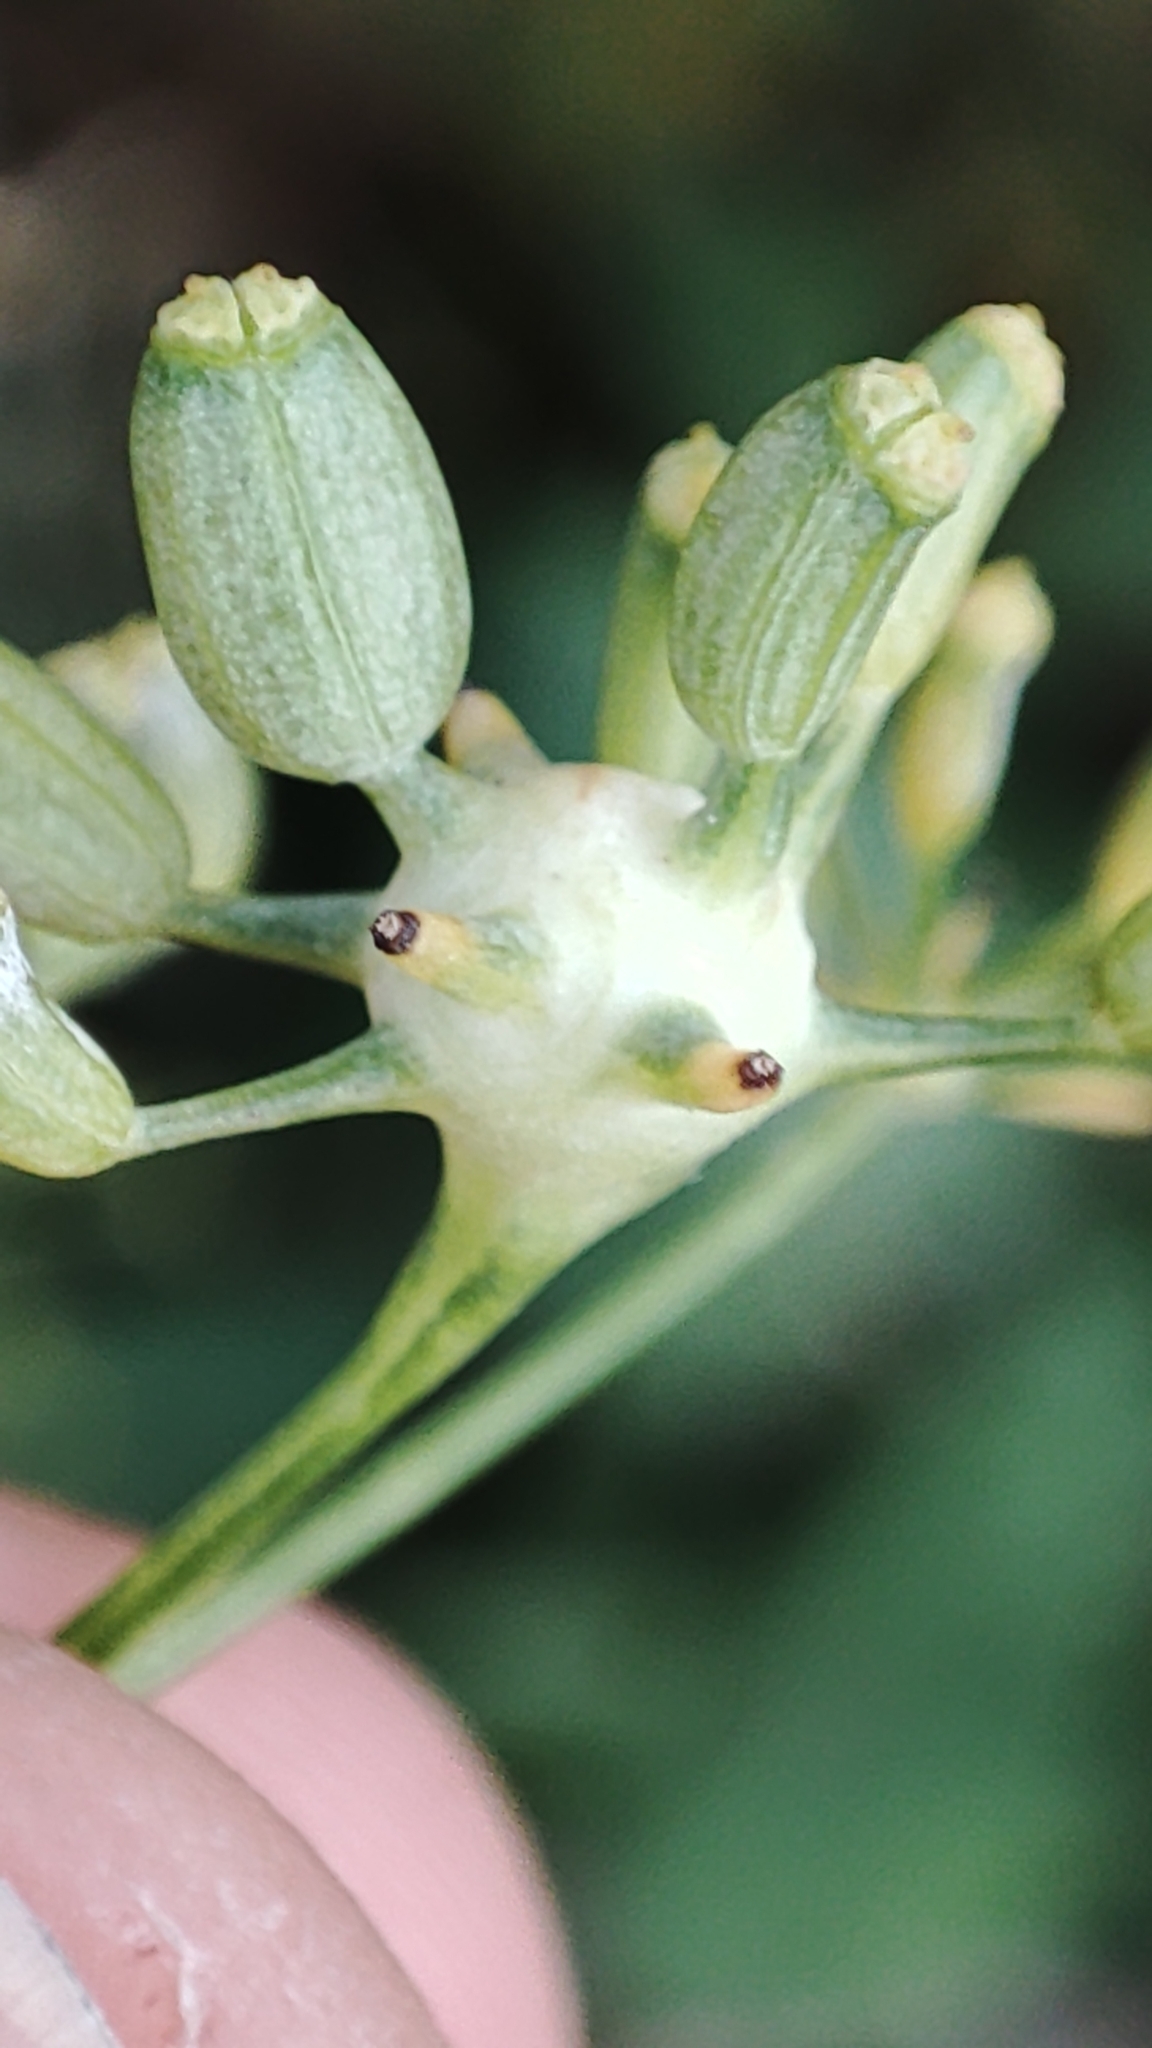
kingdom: Animalia
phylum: Arthropoda
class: Insecta
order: Diptera
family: Cecidomyiidae
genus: Lasioptera
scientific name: Lasioptera carophila
